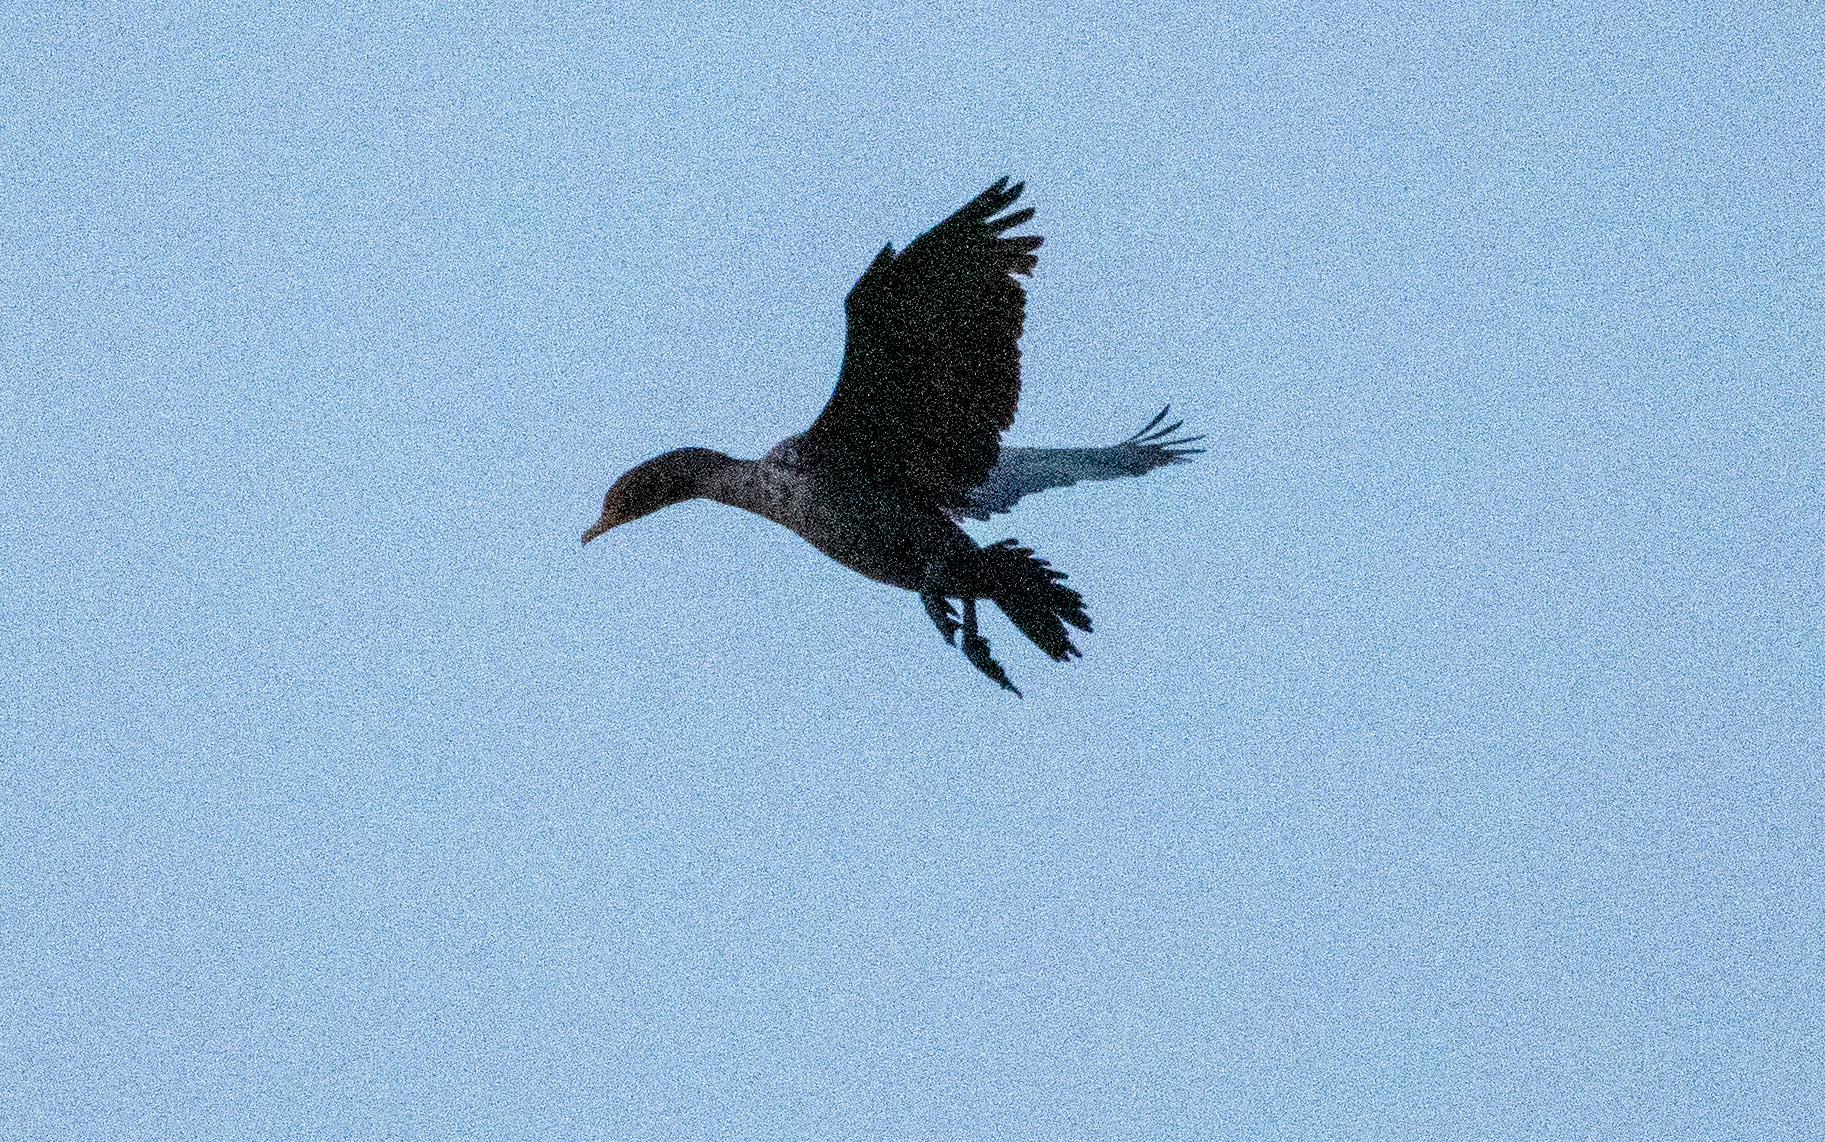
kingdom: Animalia
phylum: Chordata
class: Aves
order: Suliformes
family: Phalacrocoracidae
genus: Phalacrocorax
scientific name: Phalacrocorax auritus
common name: Double-crested cormorant
